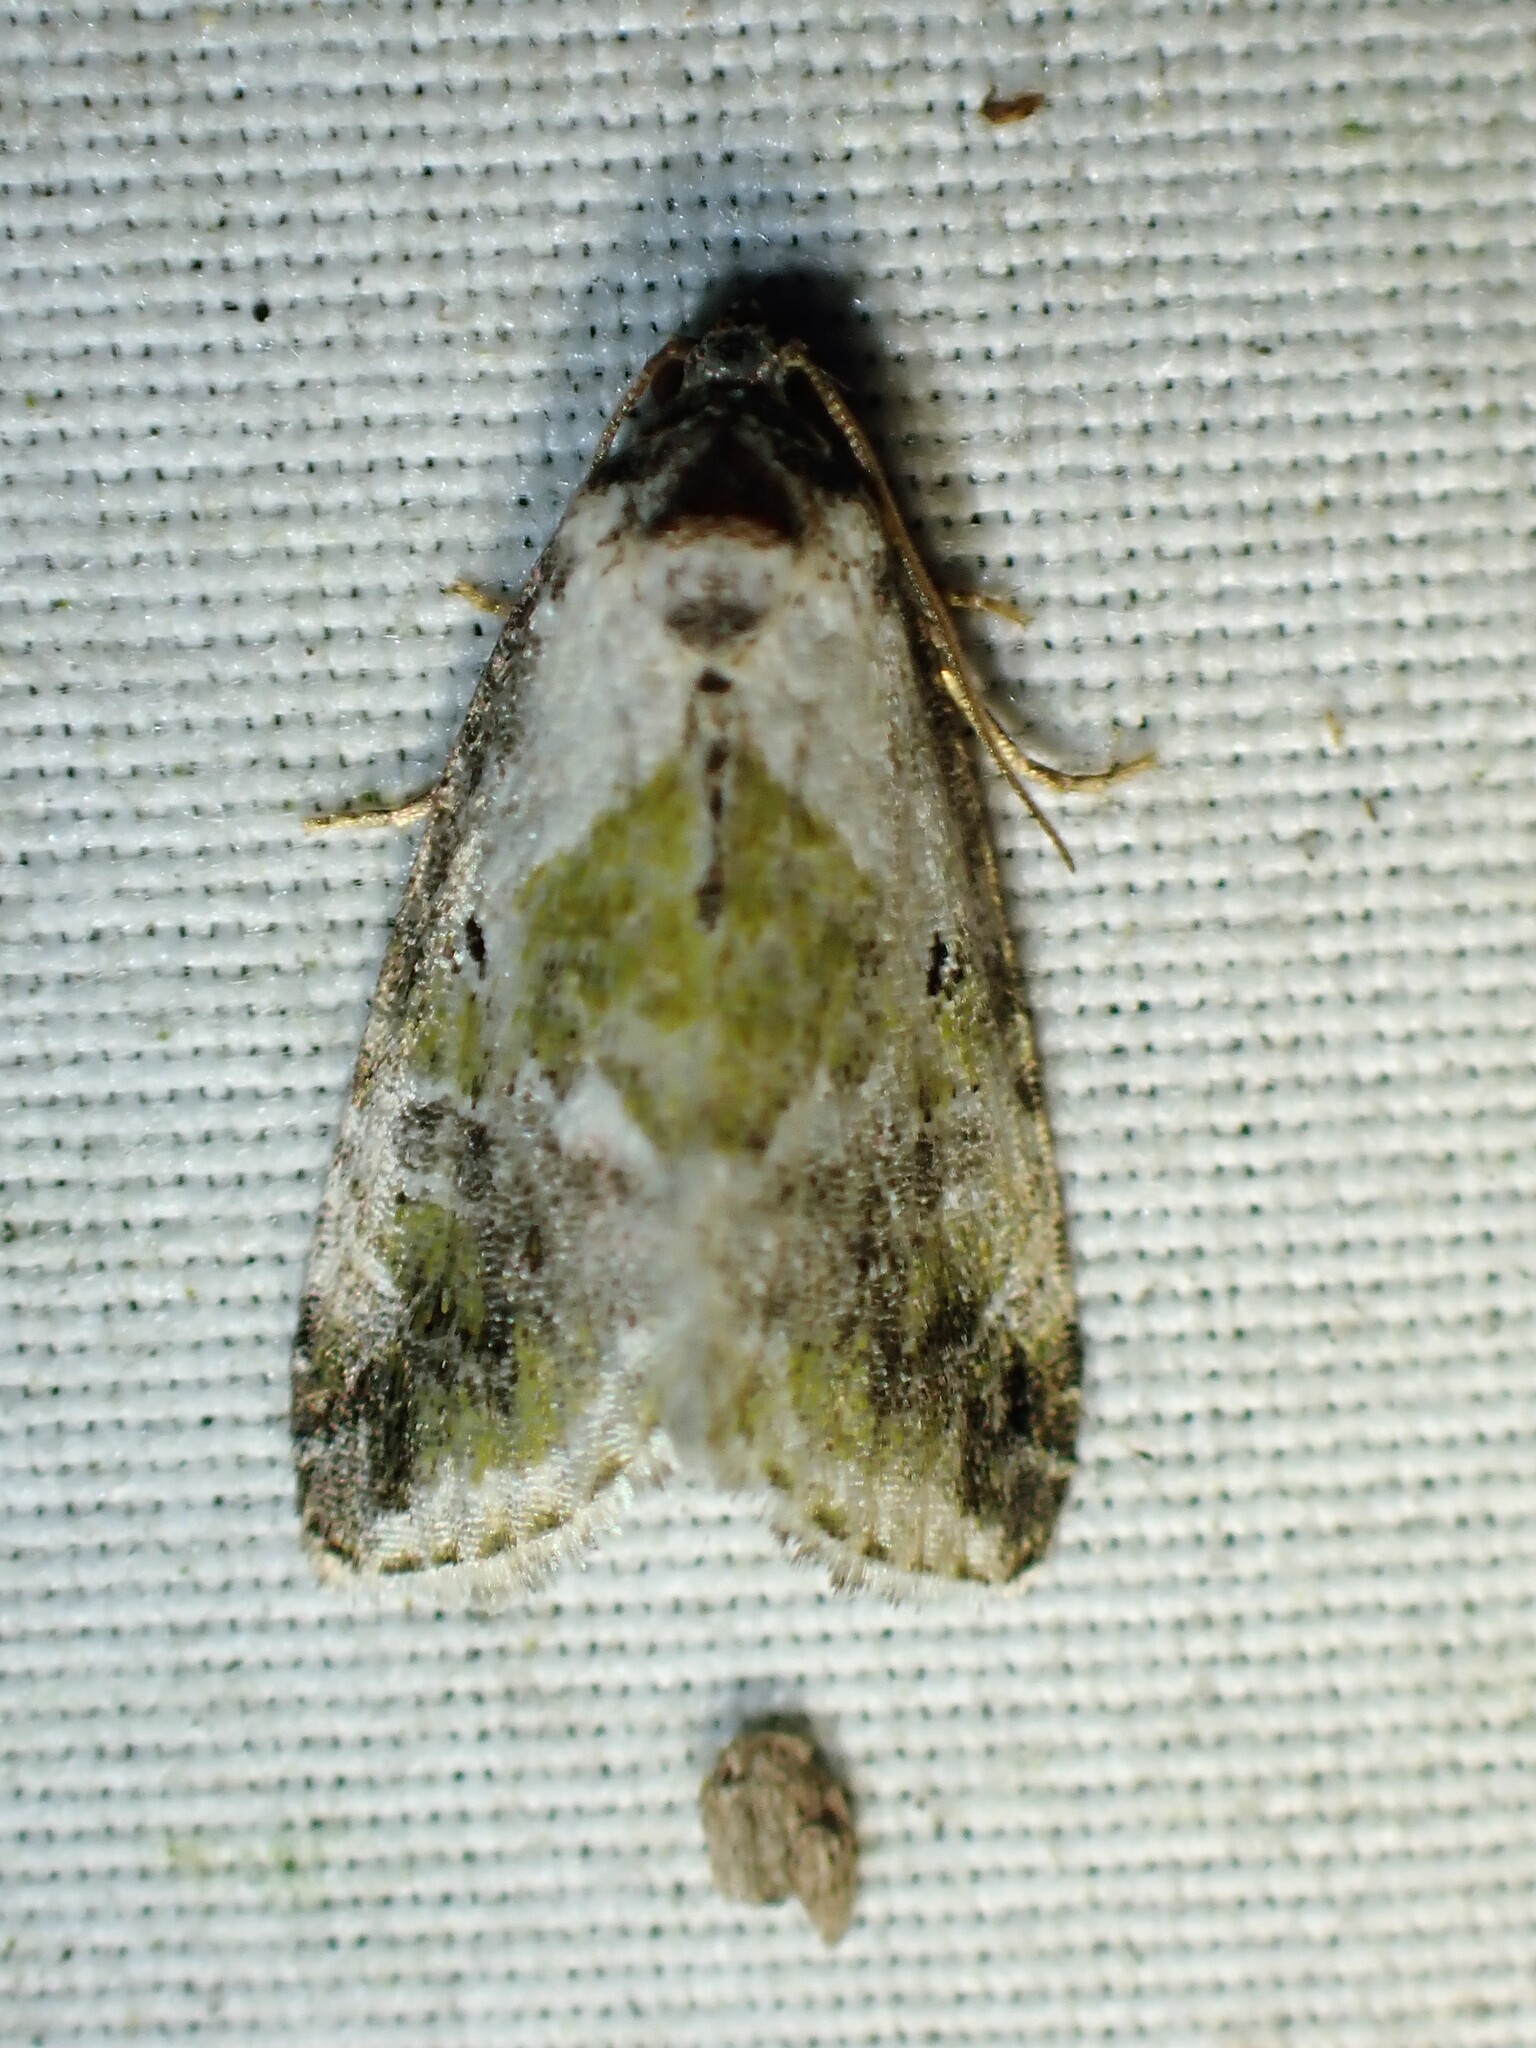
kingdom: Animalia
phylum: Arthropoda
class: Insecta
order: Lepidoptera
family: Noctuidae
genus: Maliattha
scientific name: Maliattha synochitis
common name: Black-dotted glyph
